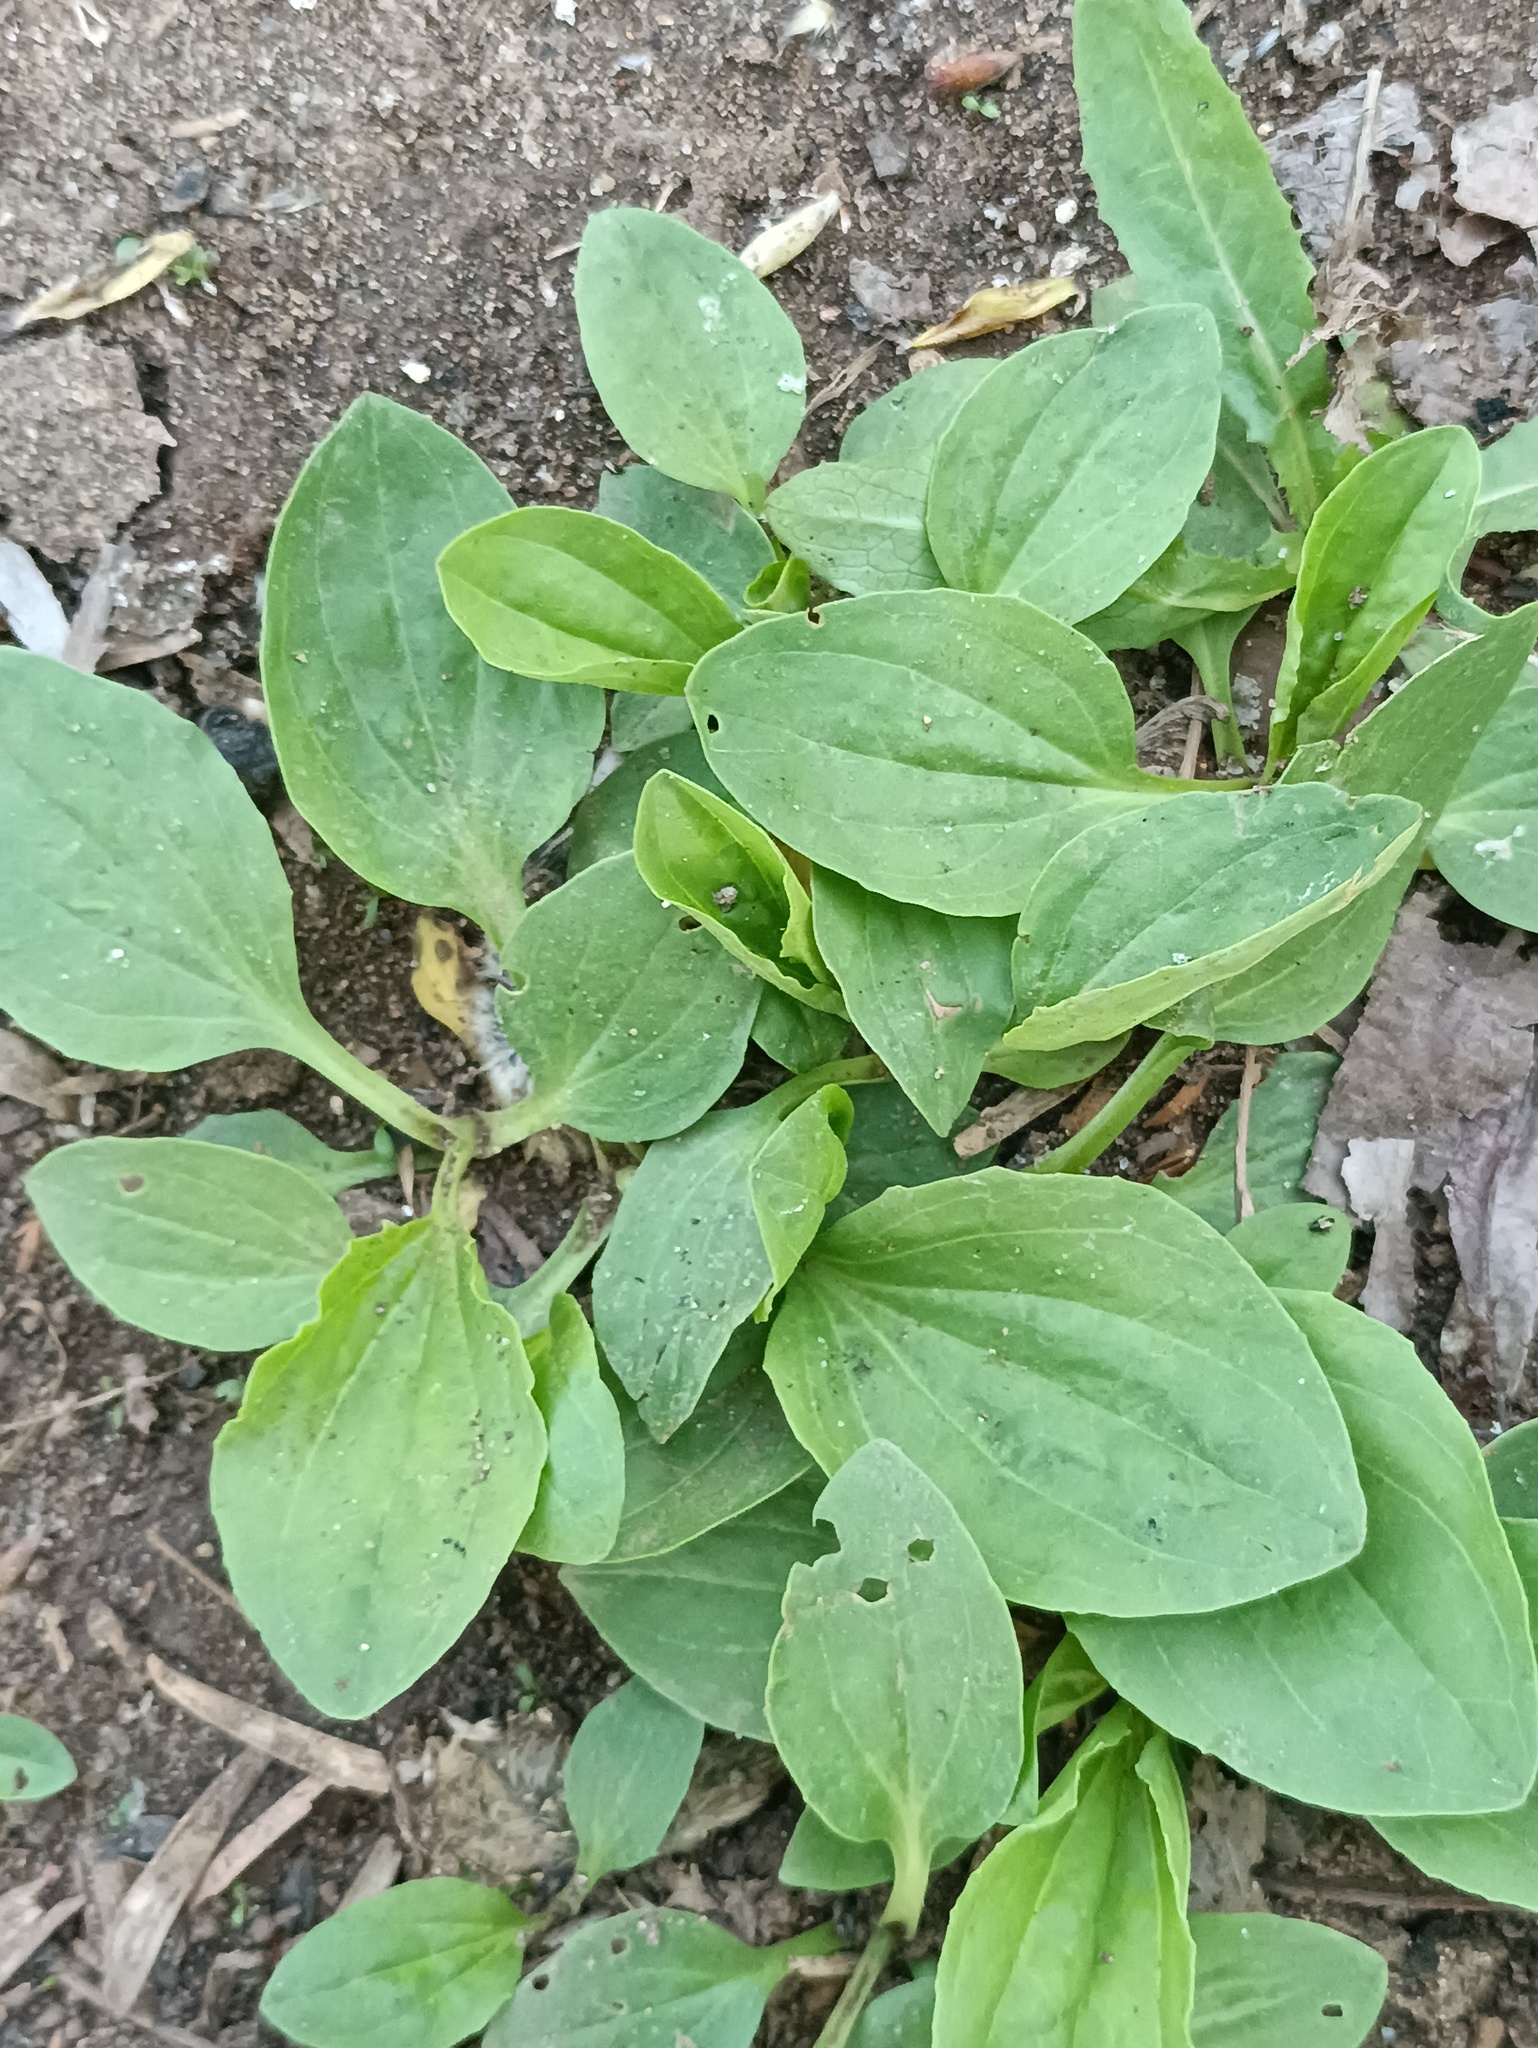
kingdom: Plantae
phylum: Tracheophyta
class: Magnoliopsida
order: Lamiales
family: Plantaginaceae
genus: Plantago
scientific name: Plantago major
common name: Common plantain
